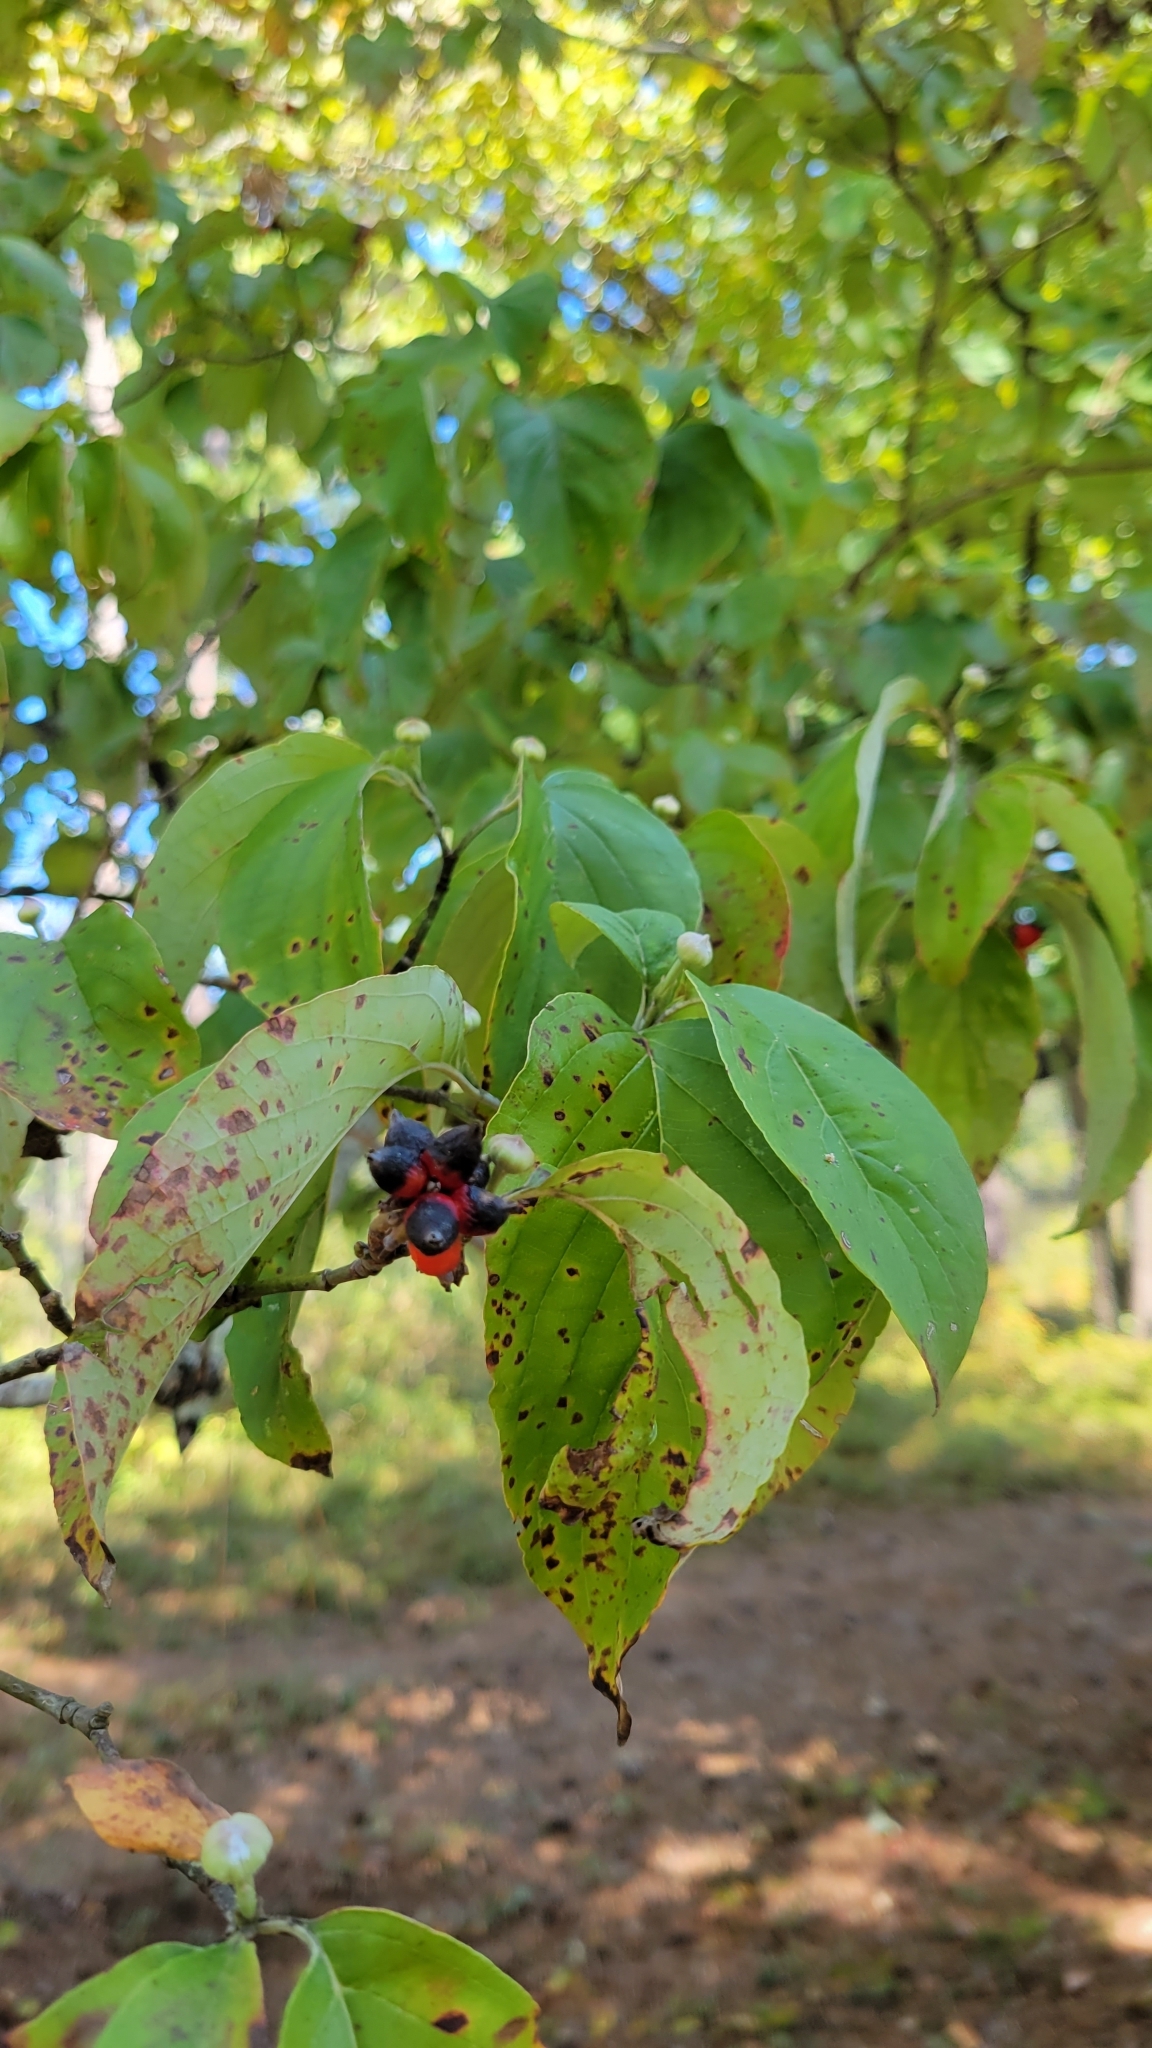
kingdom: Plantae
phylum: Tracheophyta
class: Magnoliopsida
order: Cornales
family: Cornaceae
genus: Cornus
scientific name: Cornus florida
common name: Flowering dogwood
